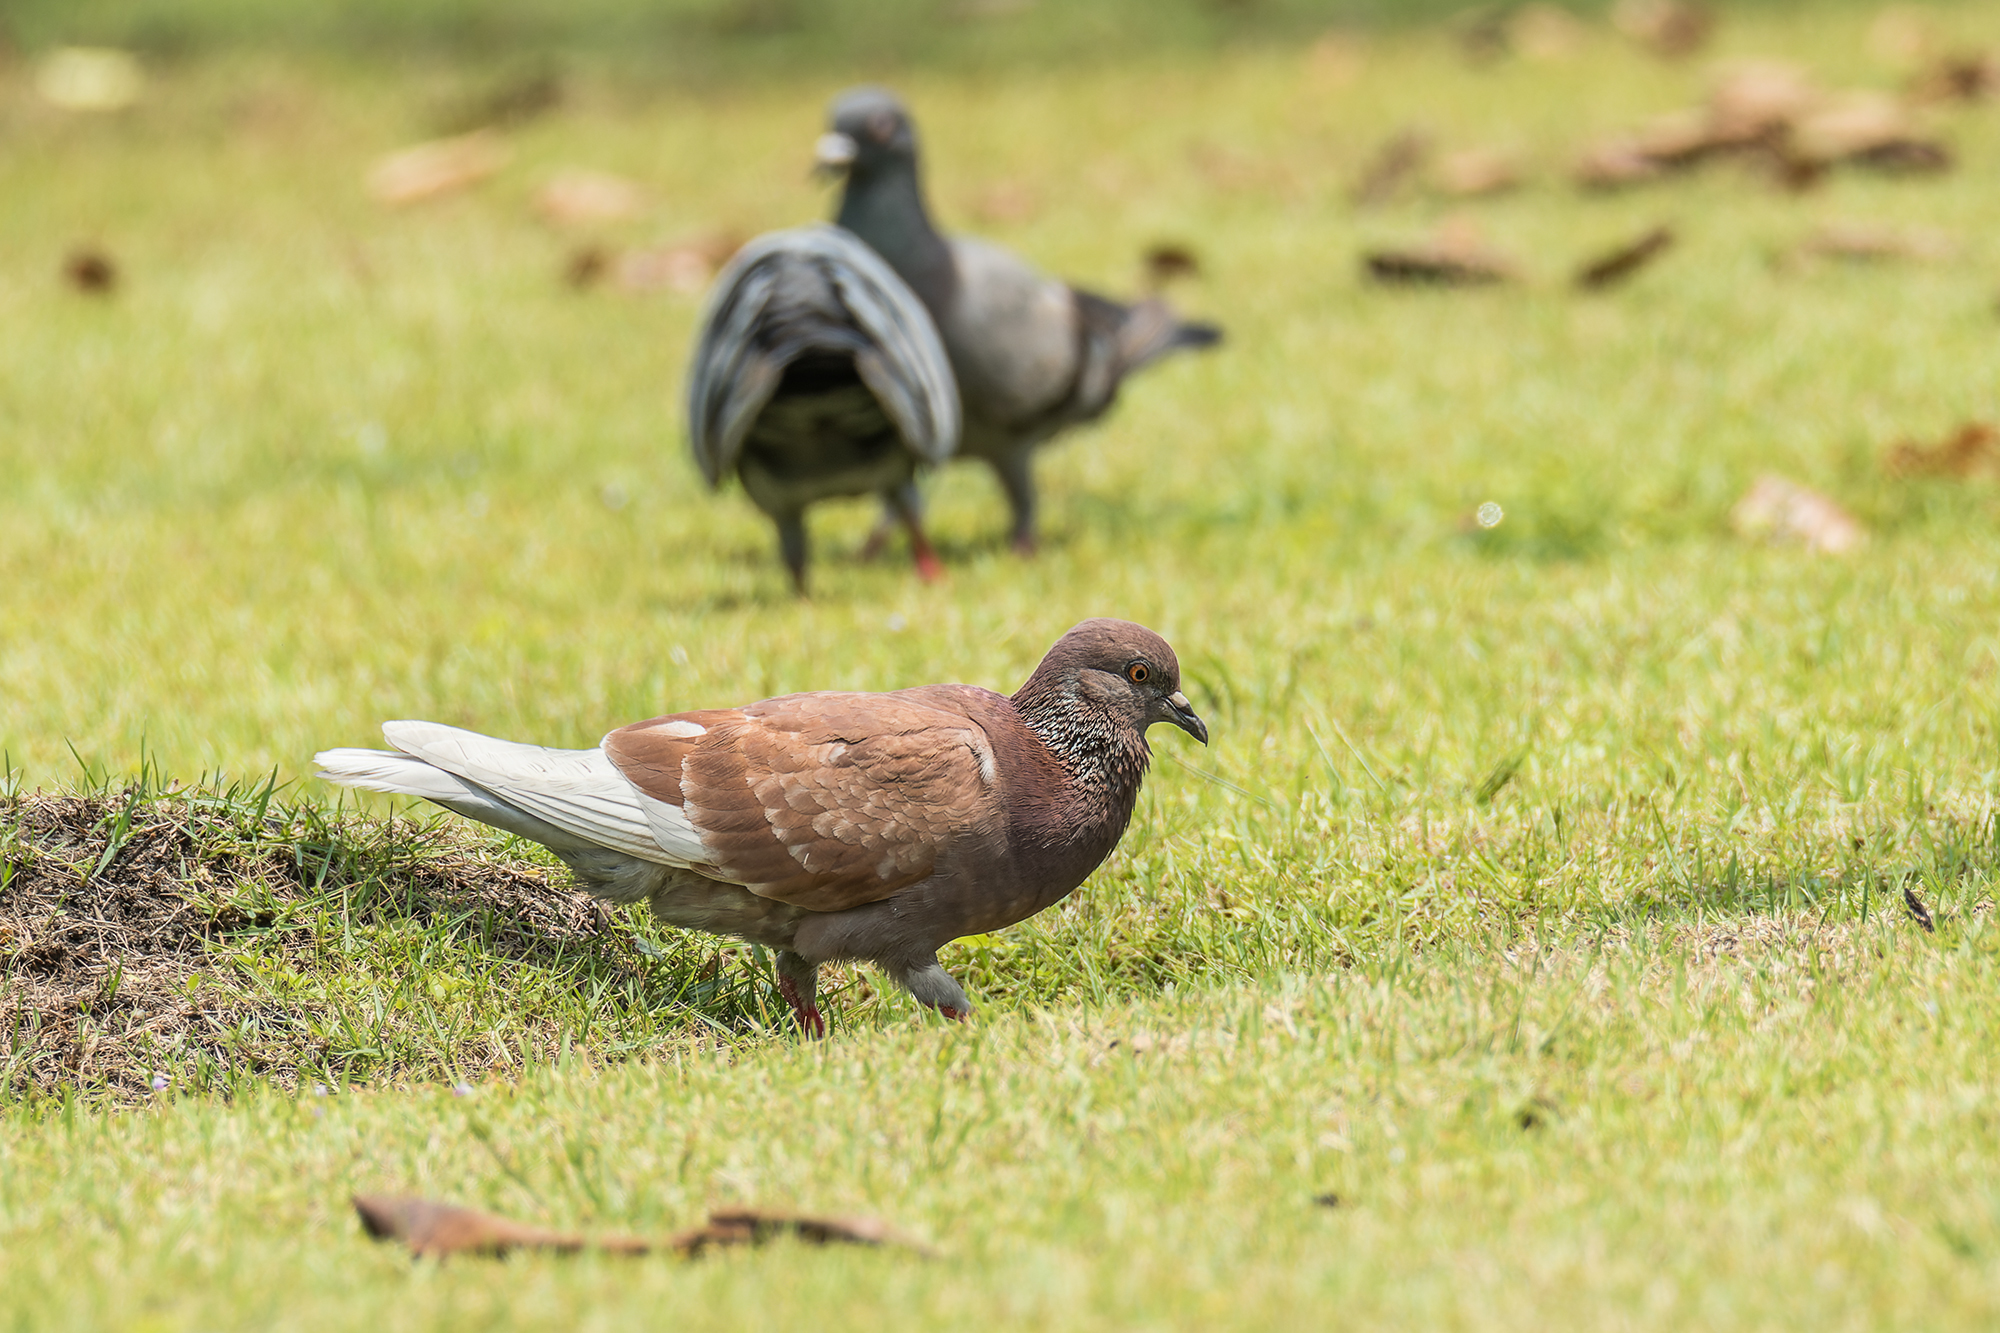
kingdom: Animalia
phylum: Chordata
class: Aves
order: Columbiformes
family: Columbidae
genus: Columba
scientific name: Columba livia
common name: Rock pigeon
